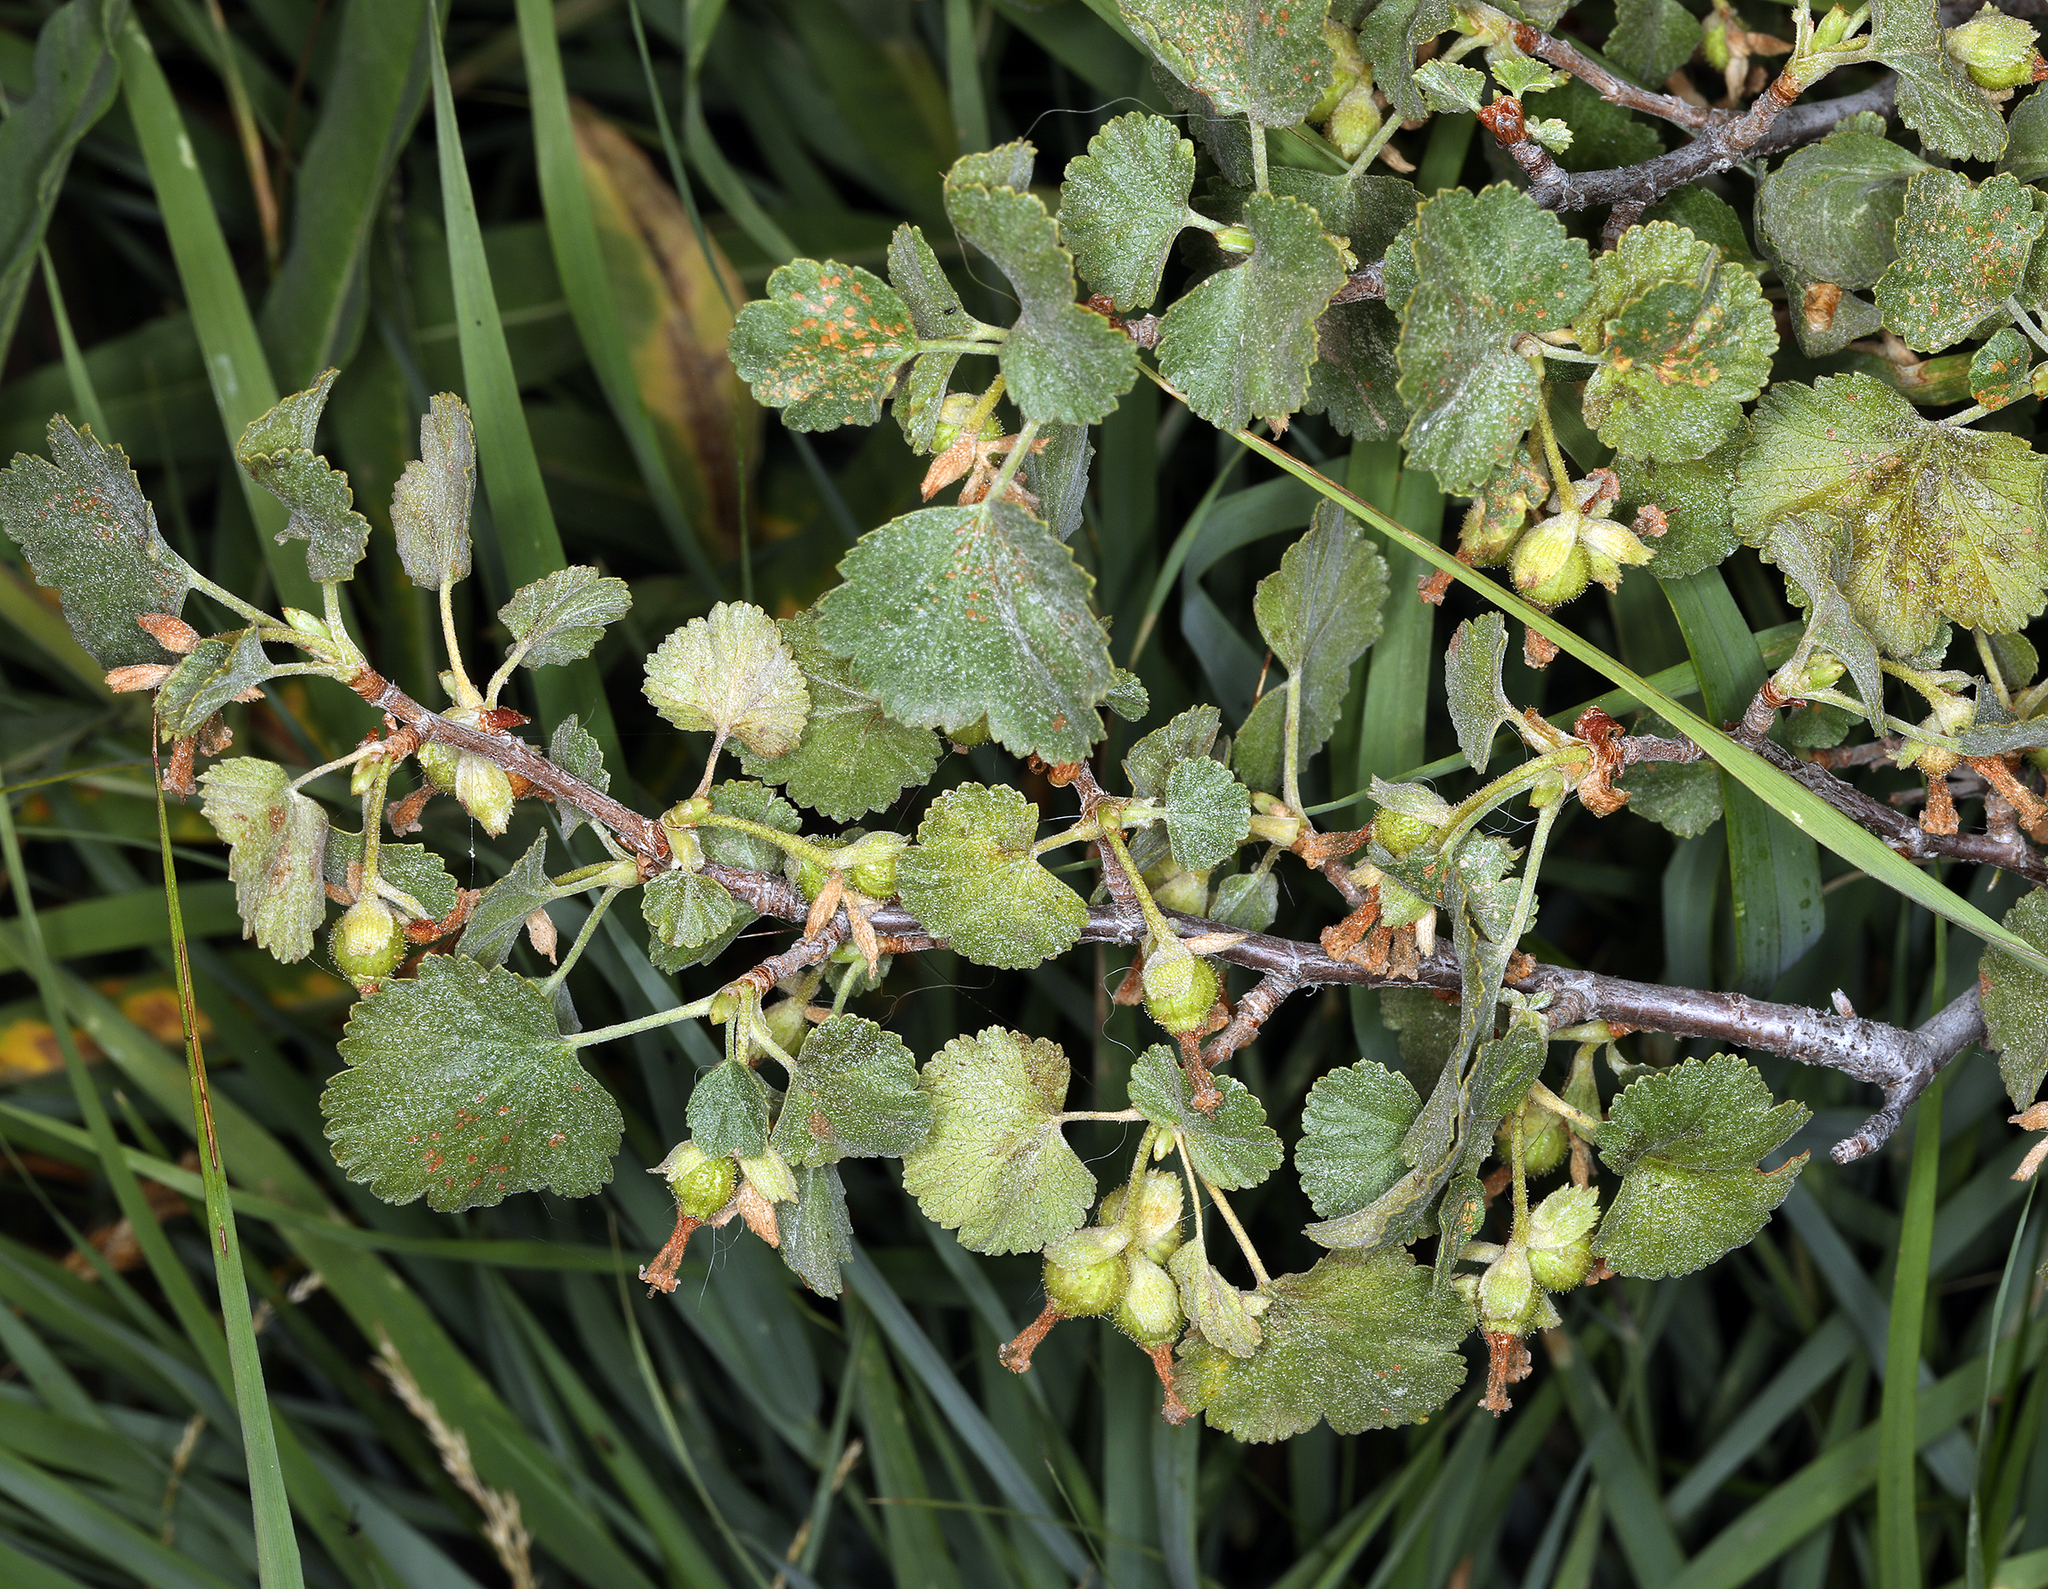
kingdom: Plantae
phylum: Tracheophyta
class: Magnoliopsida
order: Saxifragales
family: Grossulariaceae
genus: Ribes
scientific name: Ribes cereum
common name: Wax currant
